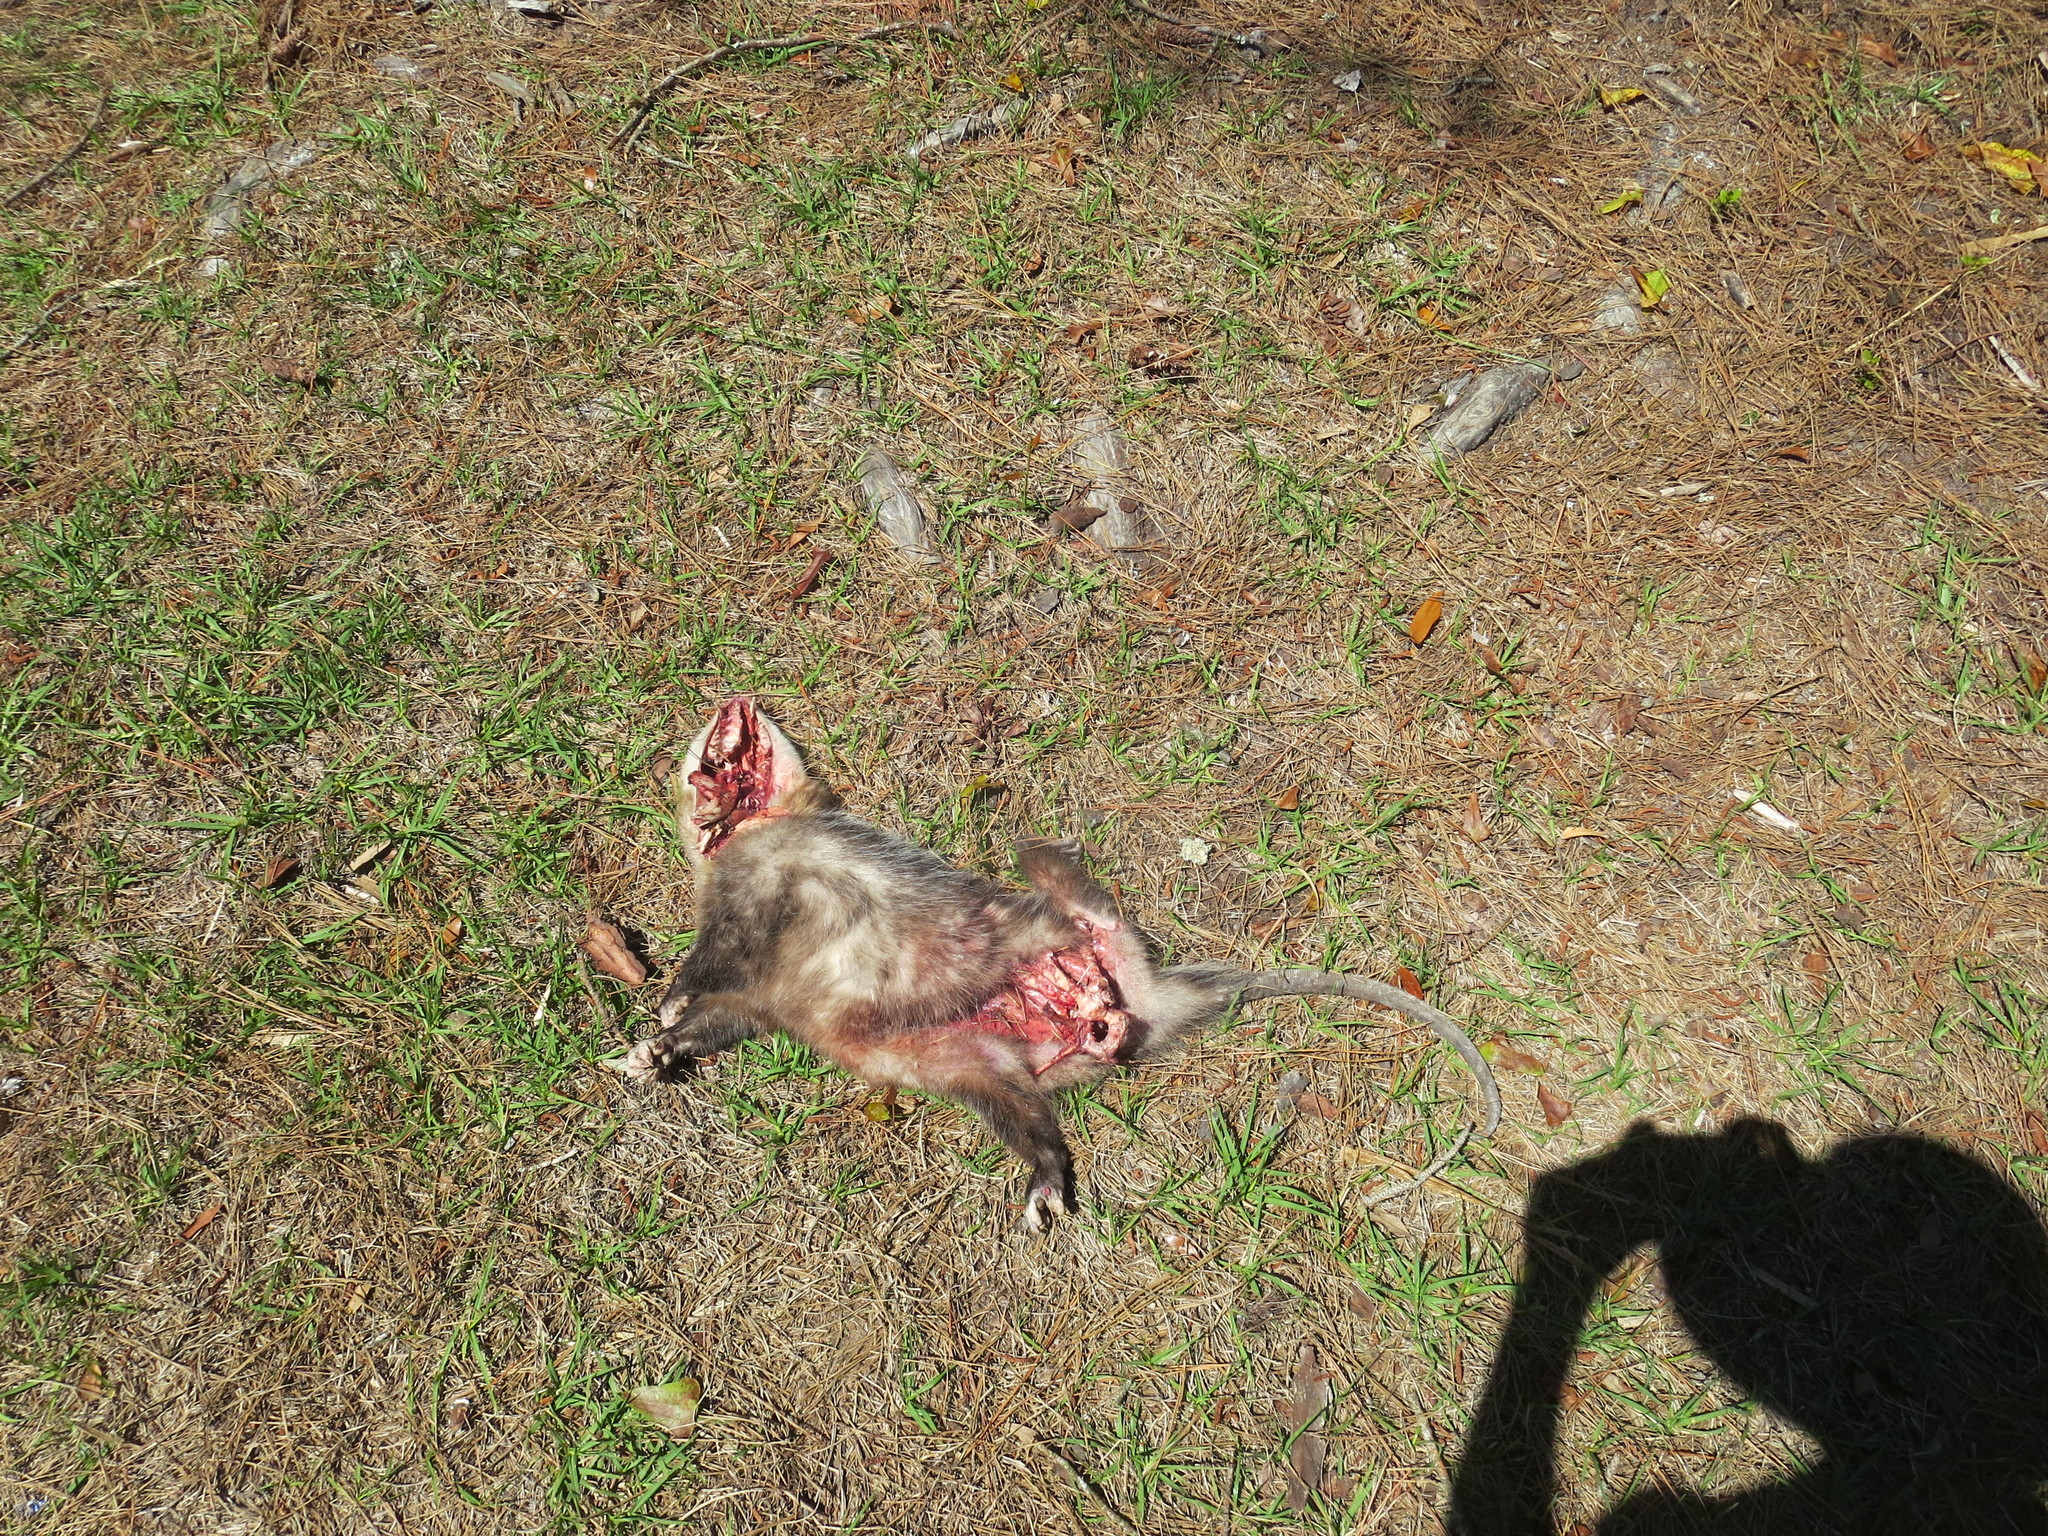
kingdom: Animalia
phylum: Chordata
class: Mammalia
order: Didelphimorphia
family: Didelphidae
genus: Didelphis
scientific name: Didelphis virginiana
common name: Virginia opossum
